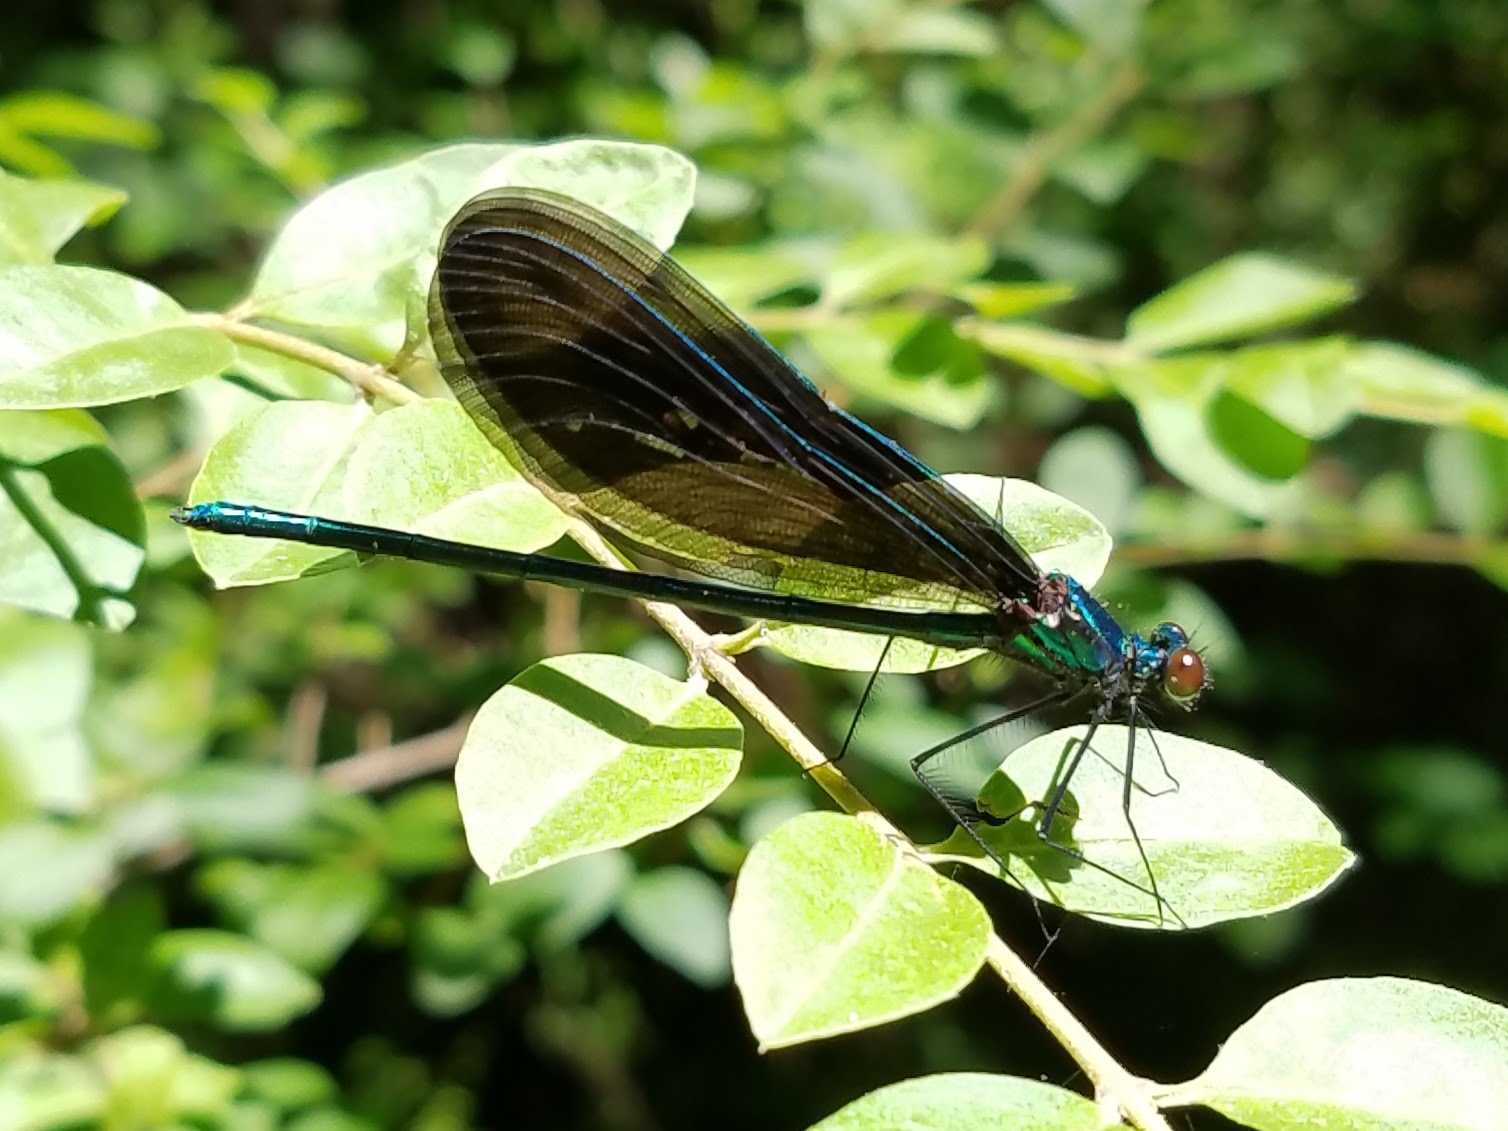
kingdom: Animalia
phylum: Arthropoda
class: Insecta
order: Odonata
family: Calopterygidae
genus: Calopteryx
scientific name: Calopteryx maculata
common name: Ebony jewelwing
